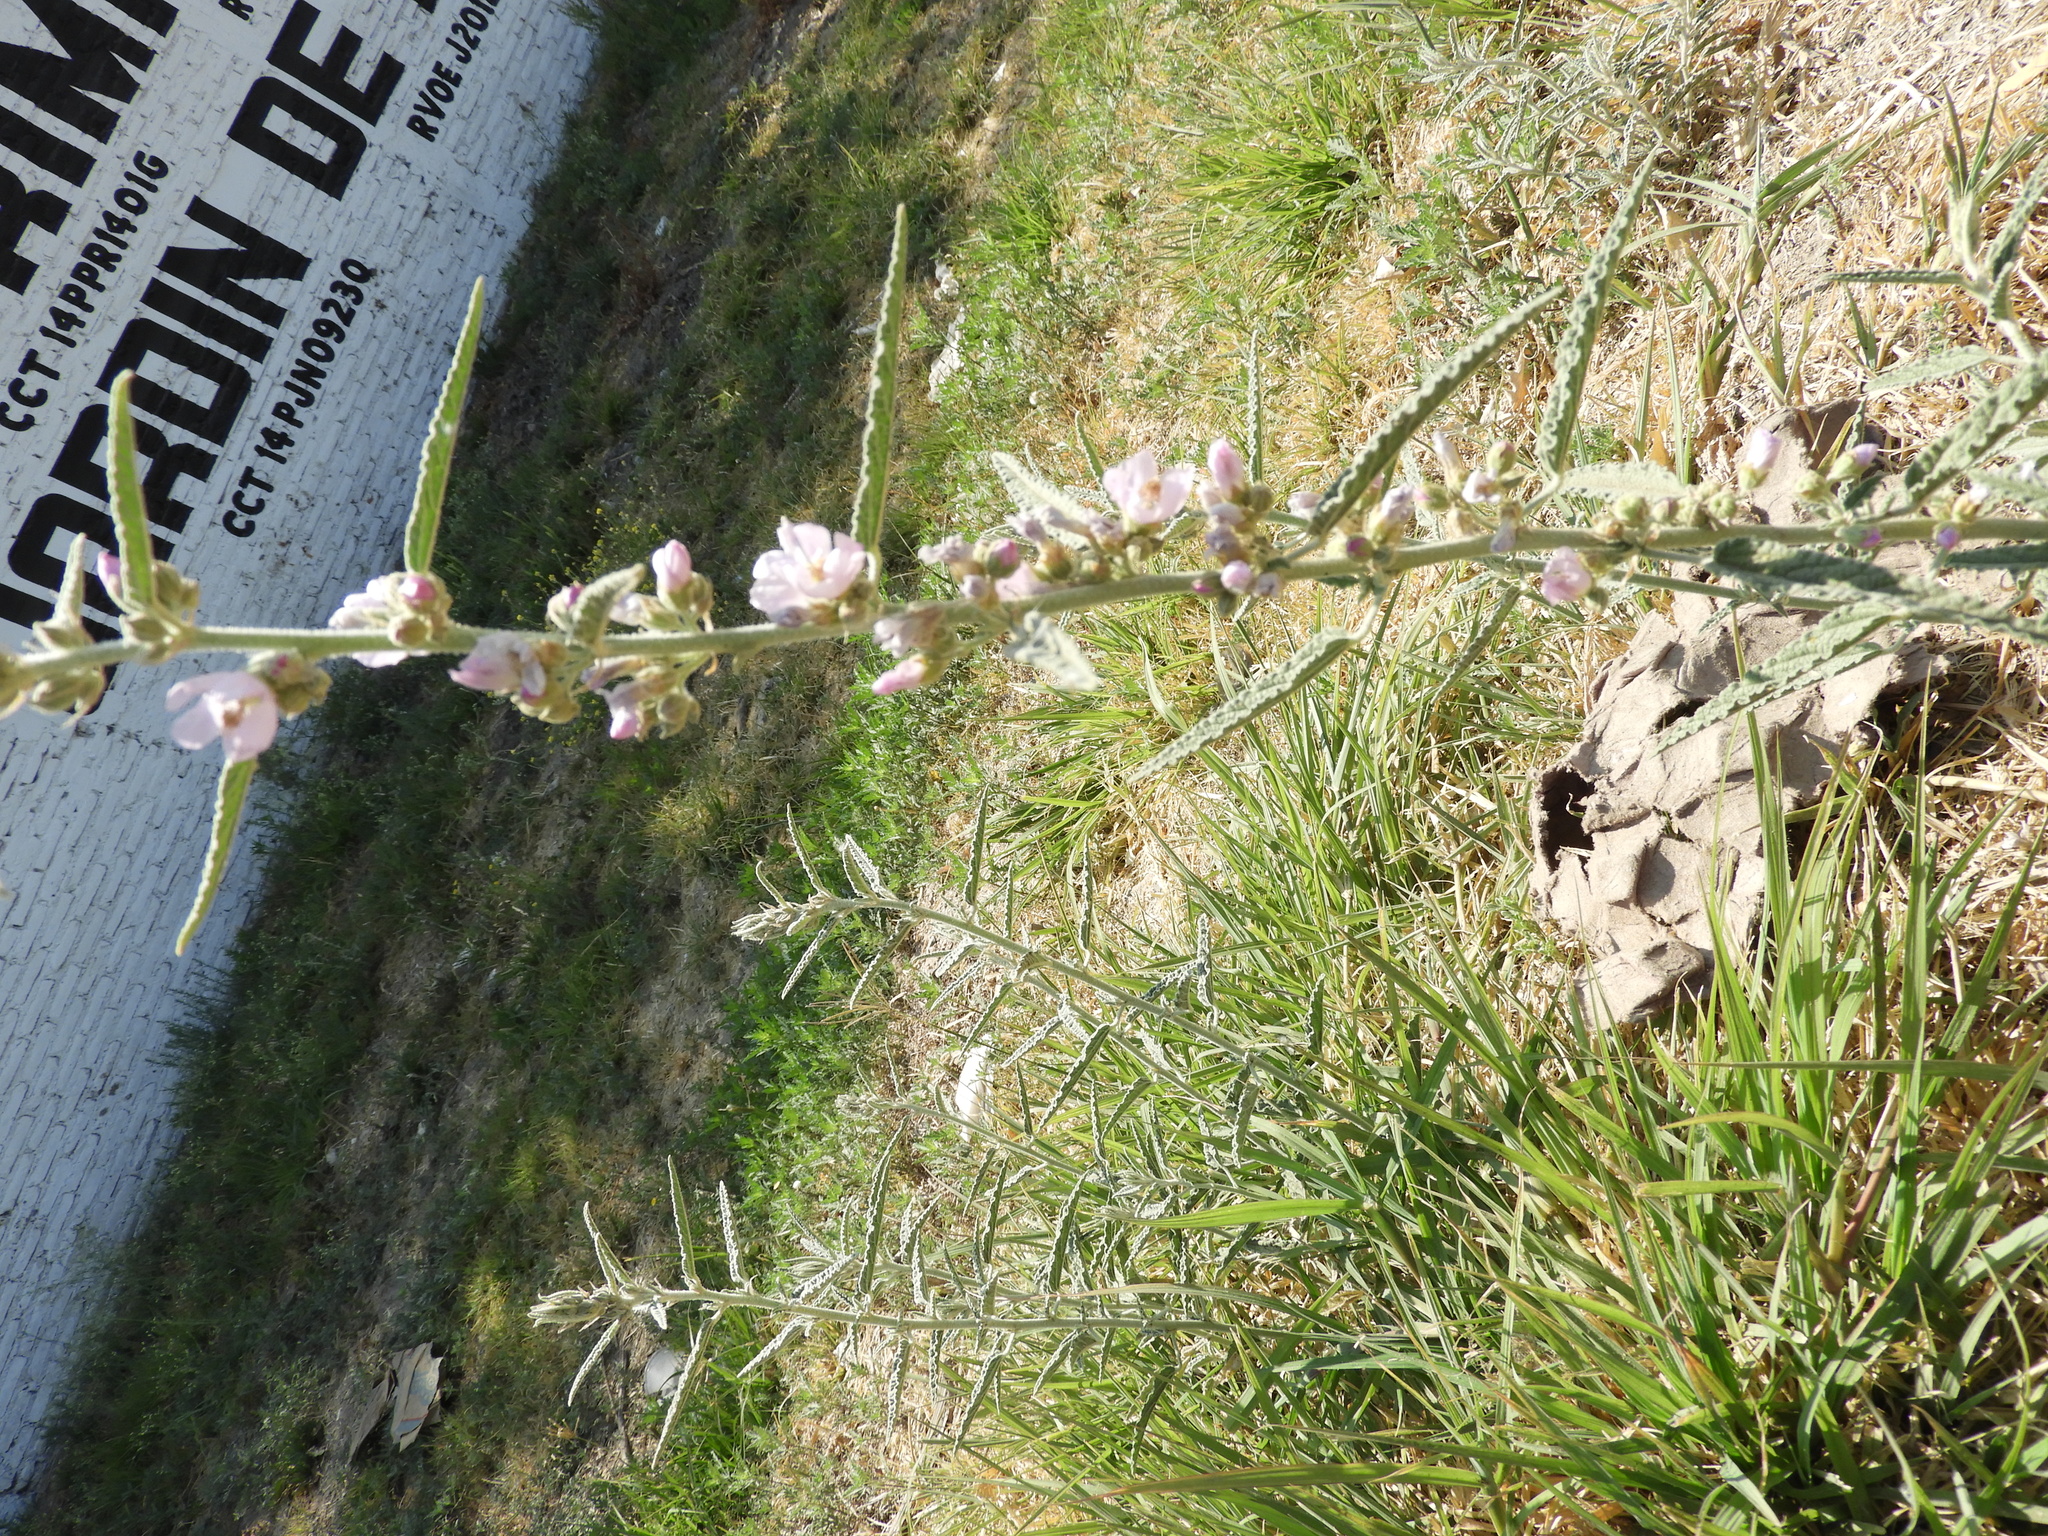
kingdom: Plantae
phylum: Tracheophyta
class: Magnoliopsida
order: Malvales
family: Malvaceae
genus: Sphaeralcea
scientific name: Sphaeralcea angustifolia
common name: Copper globe-mallow
